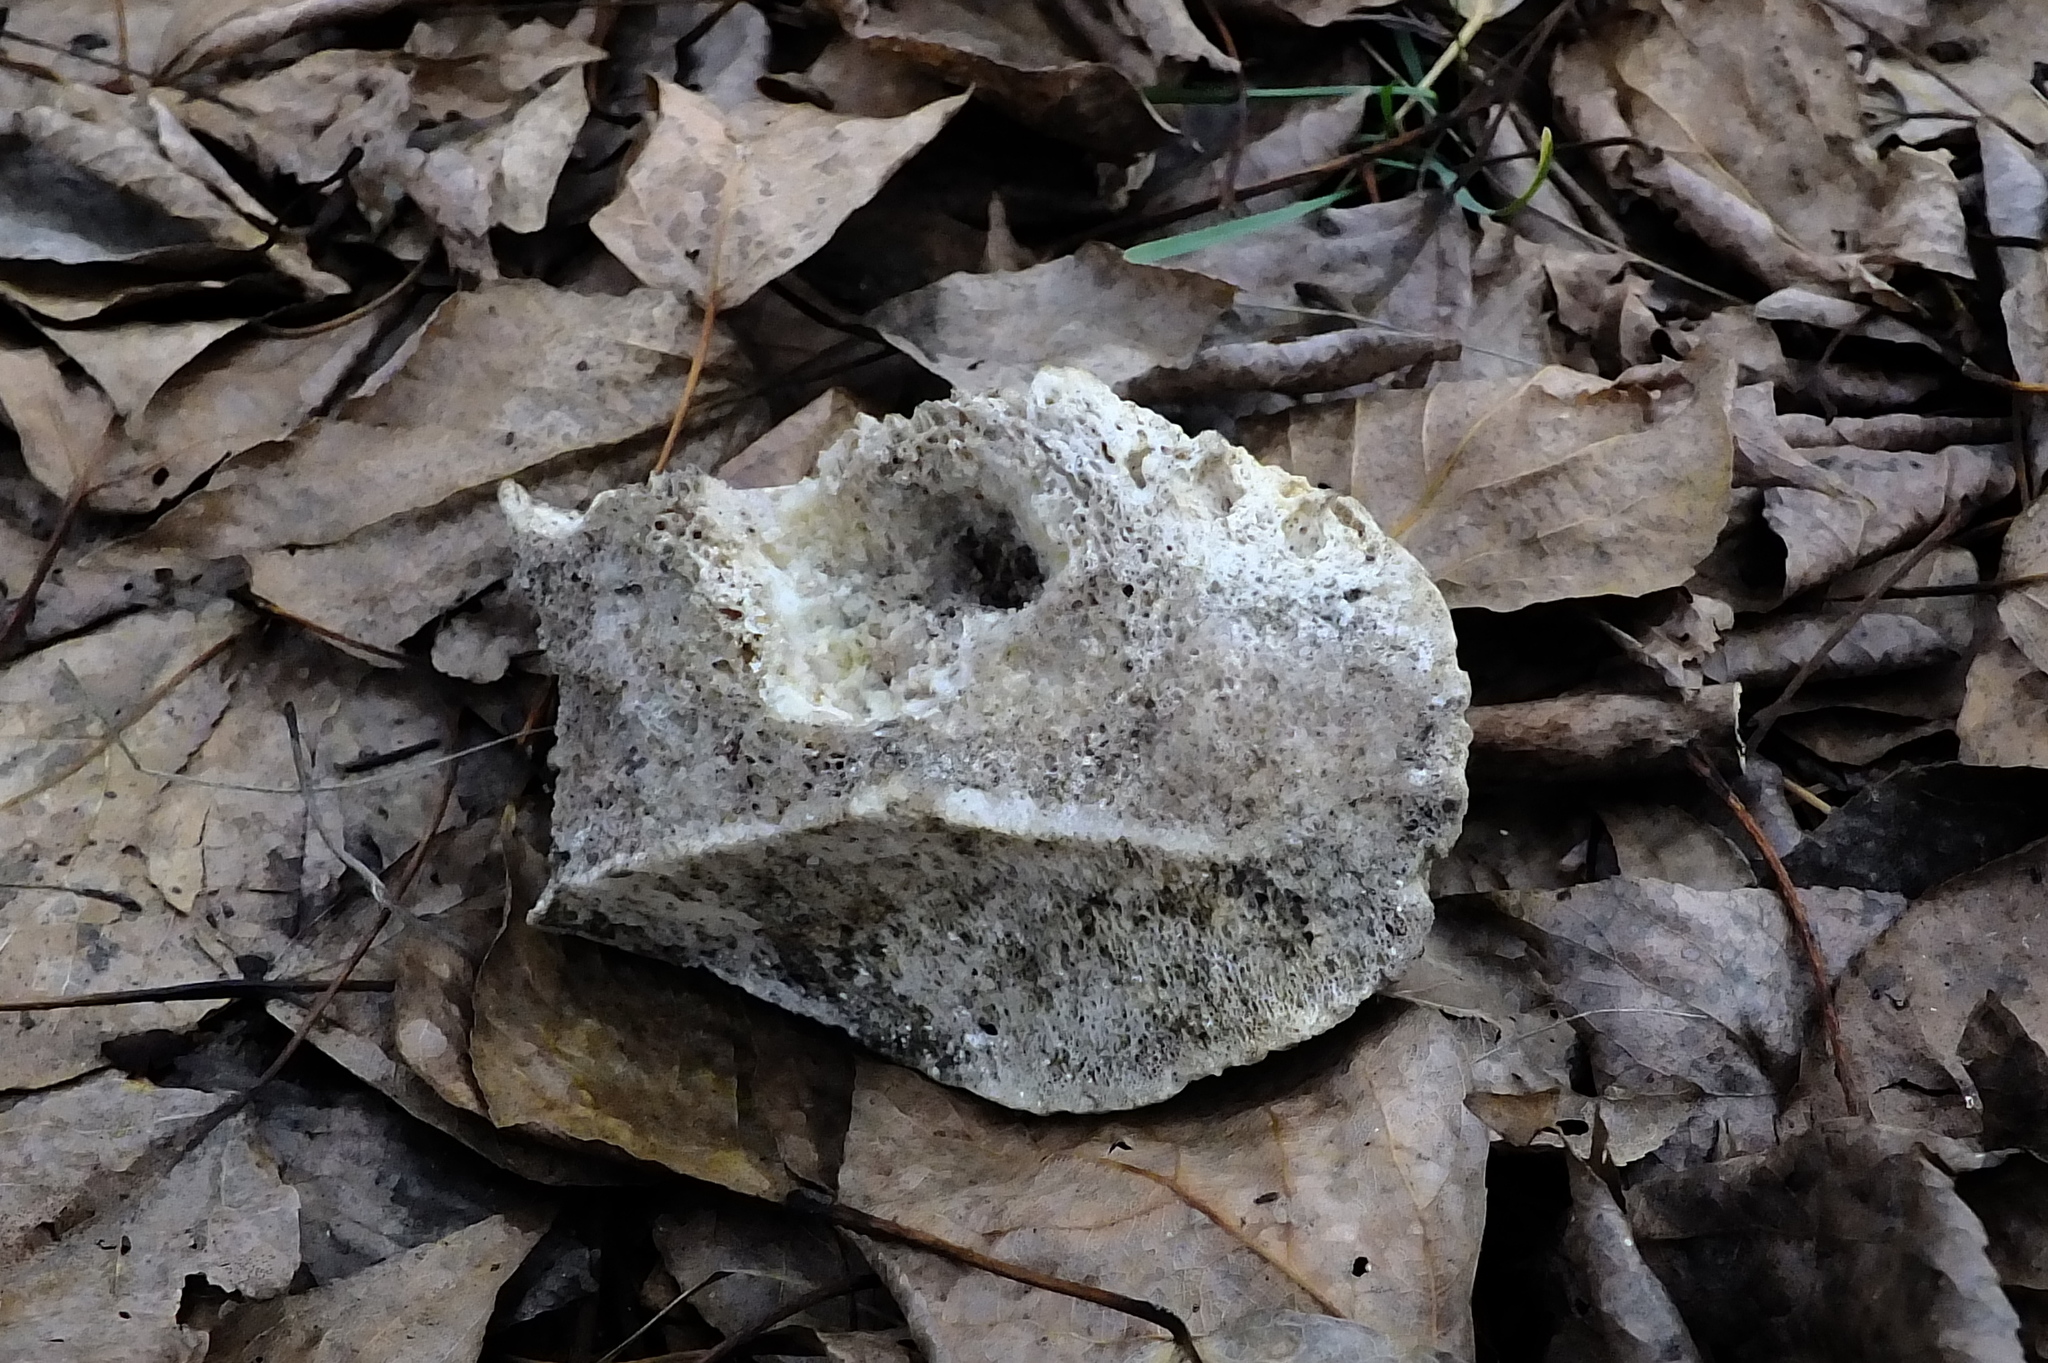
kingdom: Animalia
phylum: Chordata
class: Aves
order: Piciformes
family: Picidae
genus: Dendrocopos
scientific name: Dendrocopos major
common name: Great spotted woodpecker
